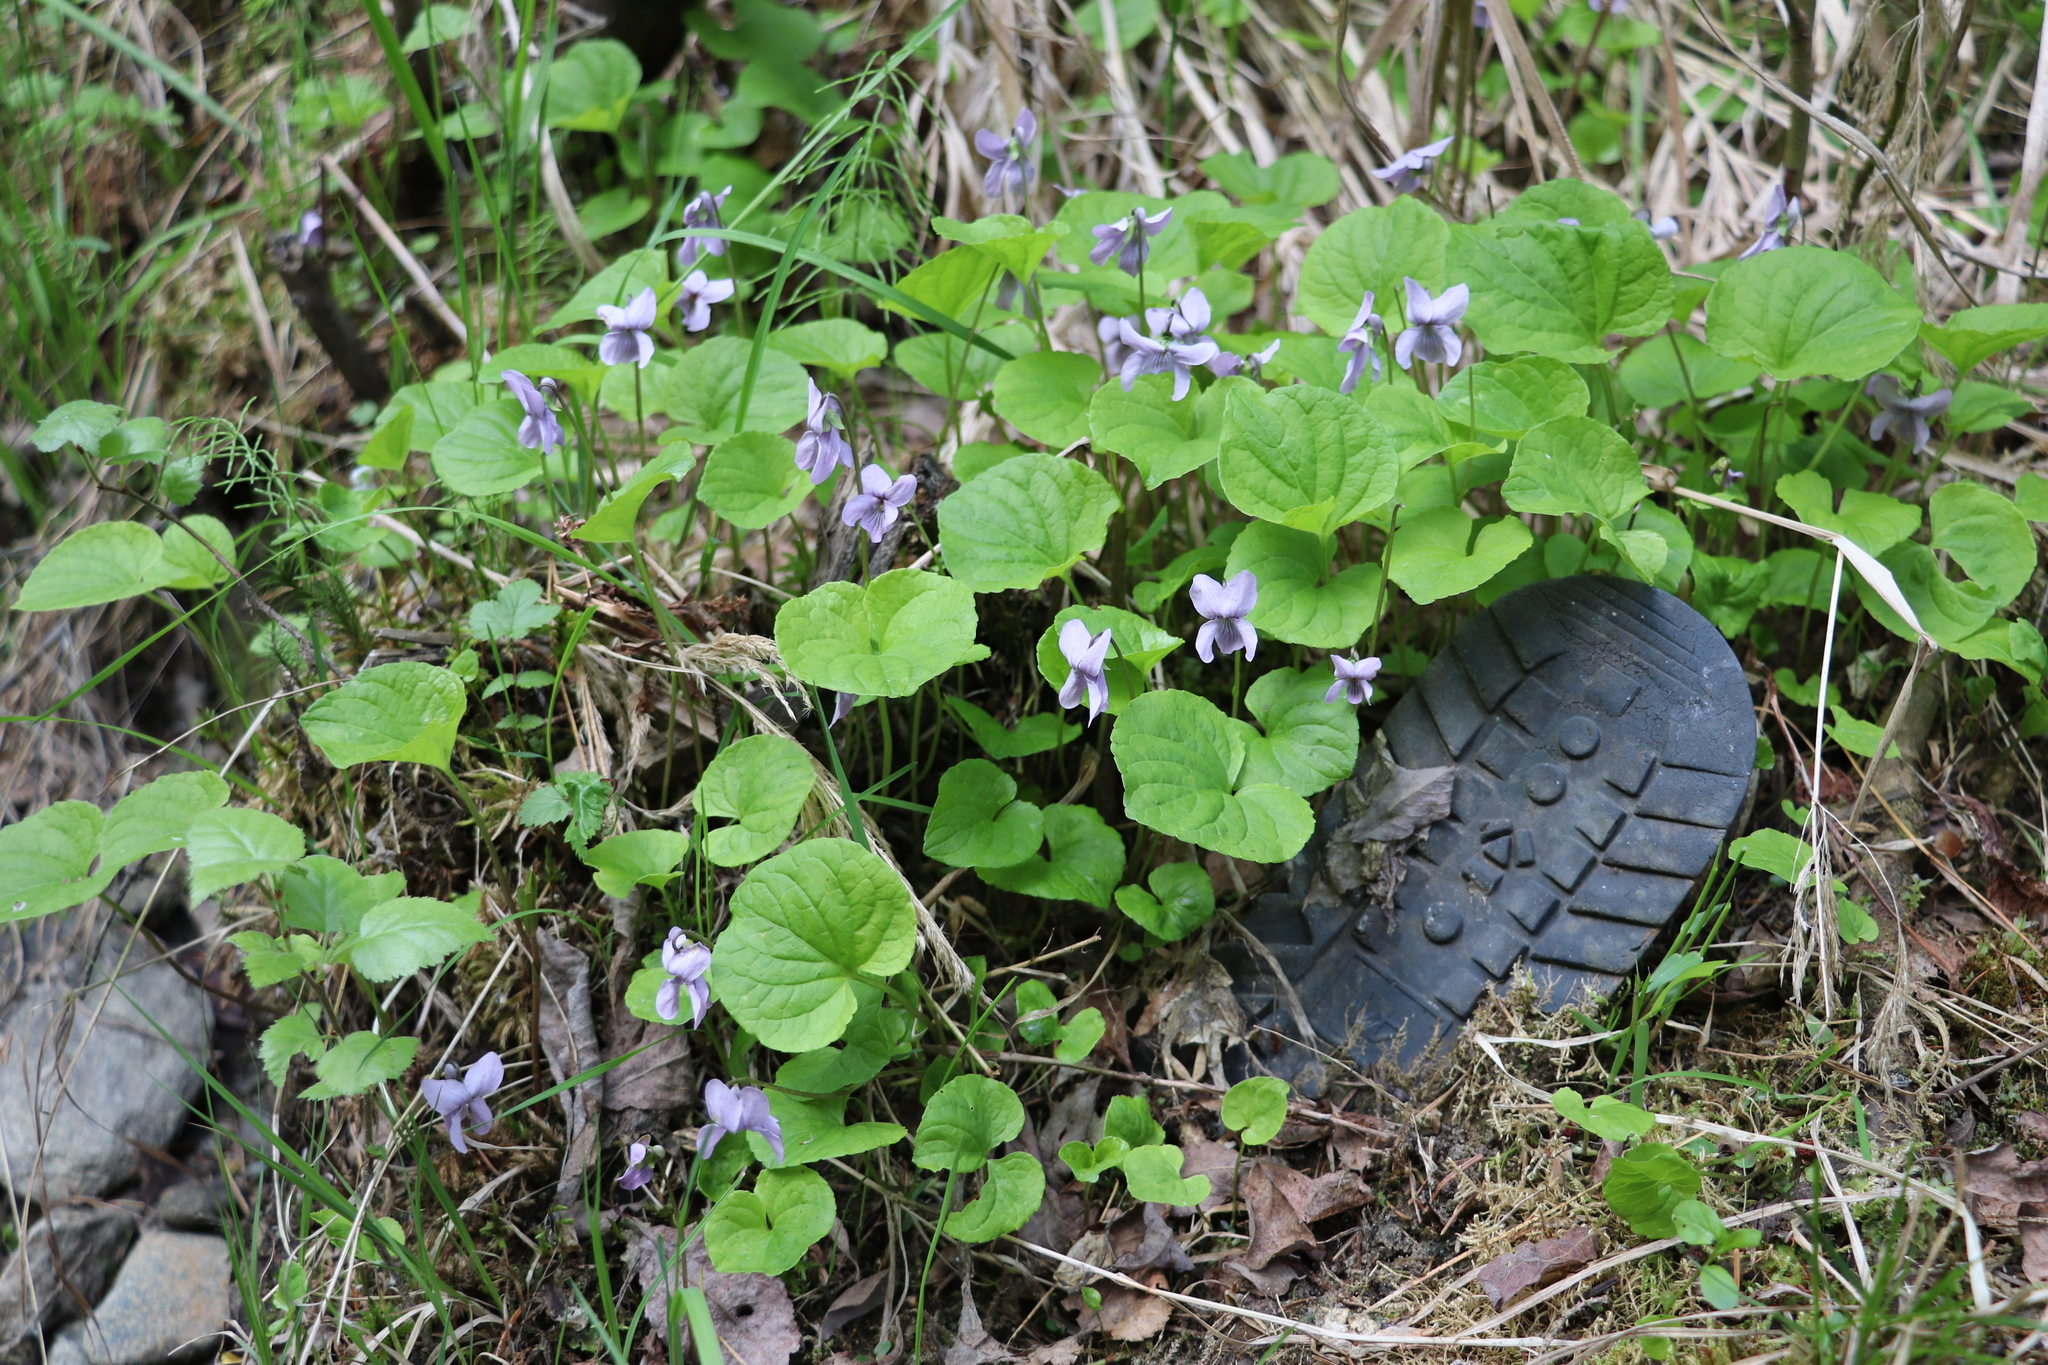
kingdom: Plantae
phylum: Tracheophyta
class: Magnoliopsida
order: Malpighiales
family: Violaceae
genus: Viola
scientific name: Viola epipsila
